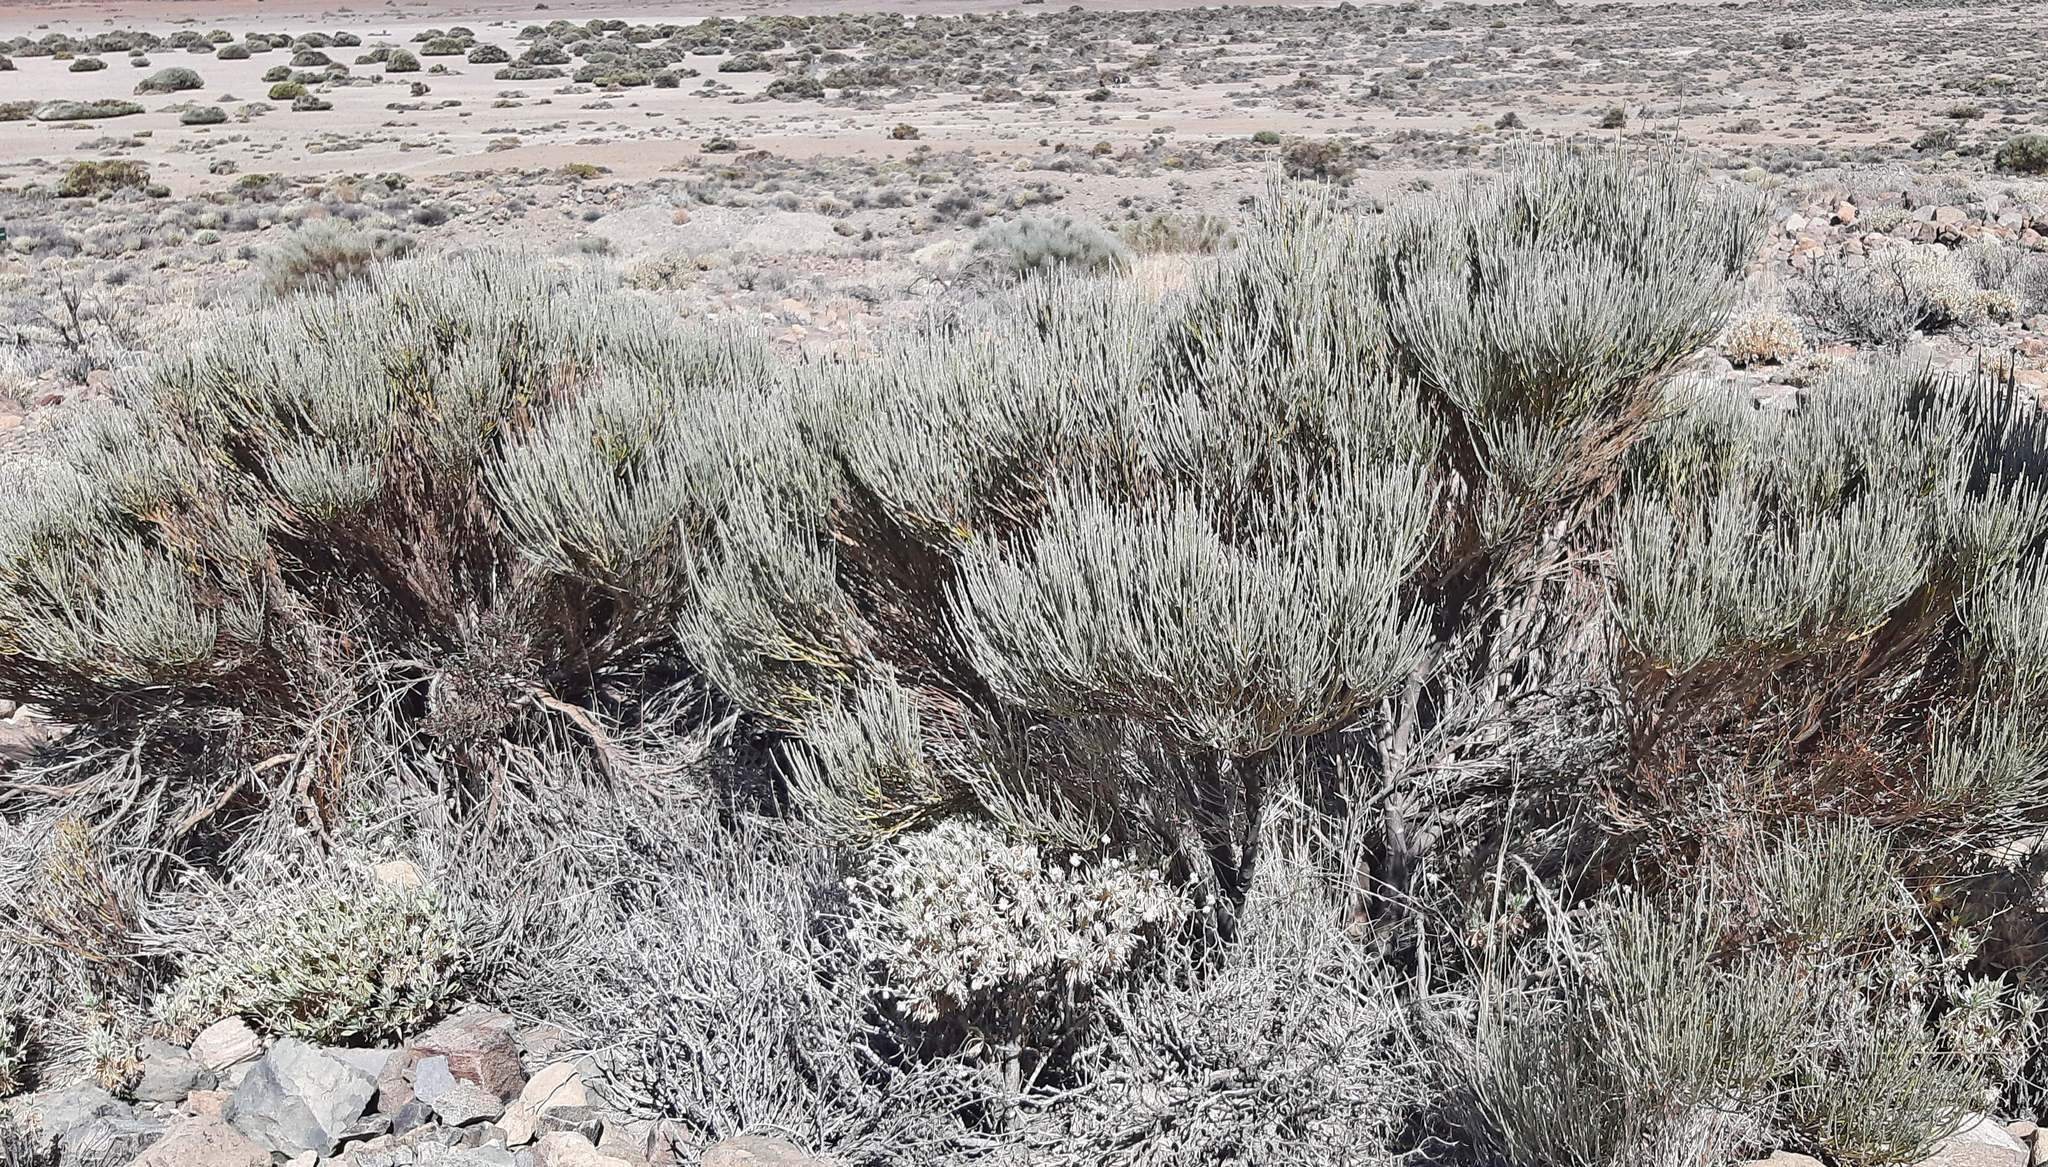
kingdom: Plantae
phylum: Tracheophyta
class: Magnoliopsida
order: Fabales
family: Fabaceae
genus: Cytisus
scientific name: Cytisus supranubius
